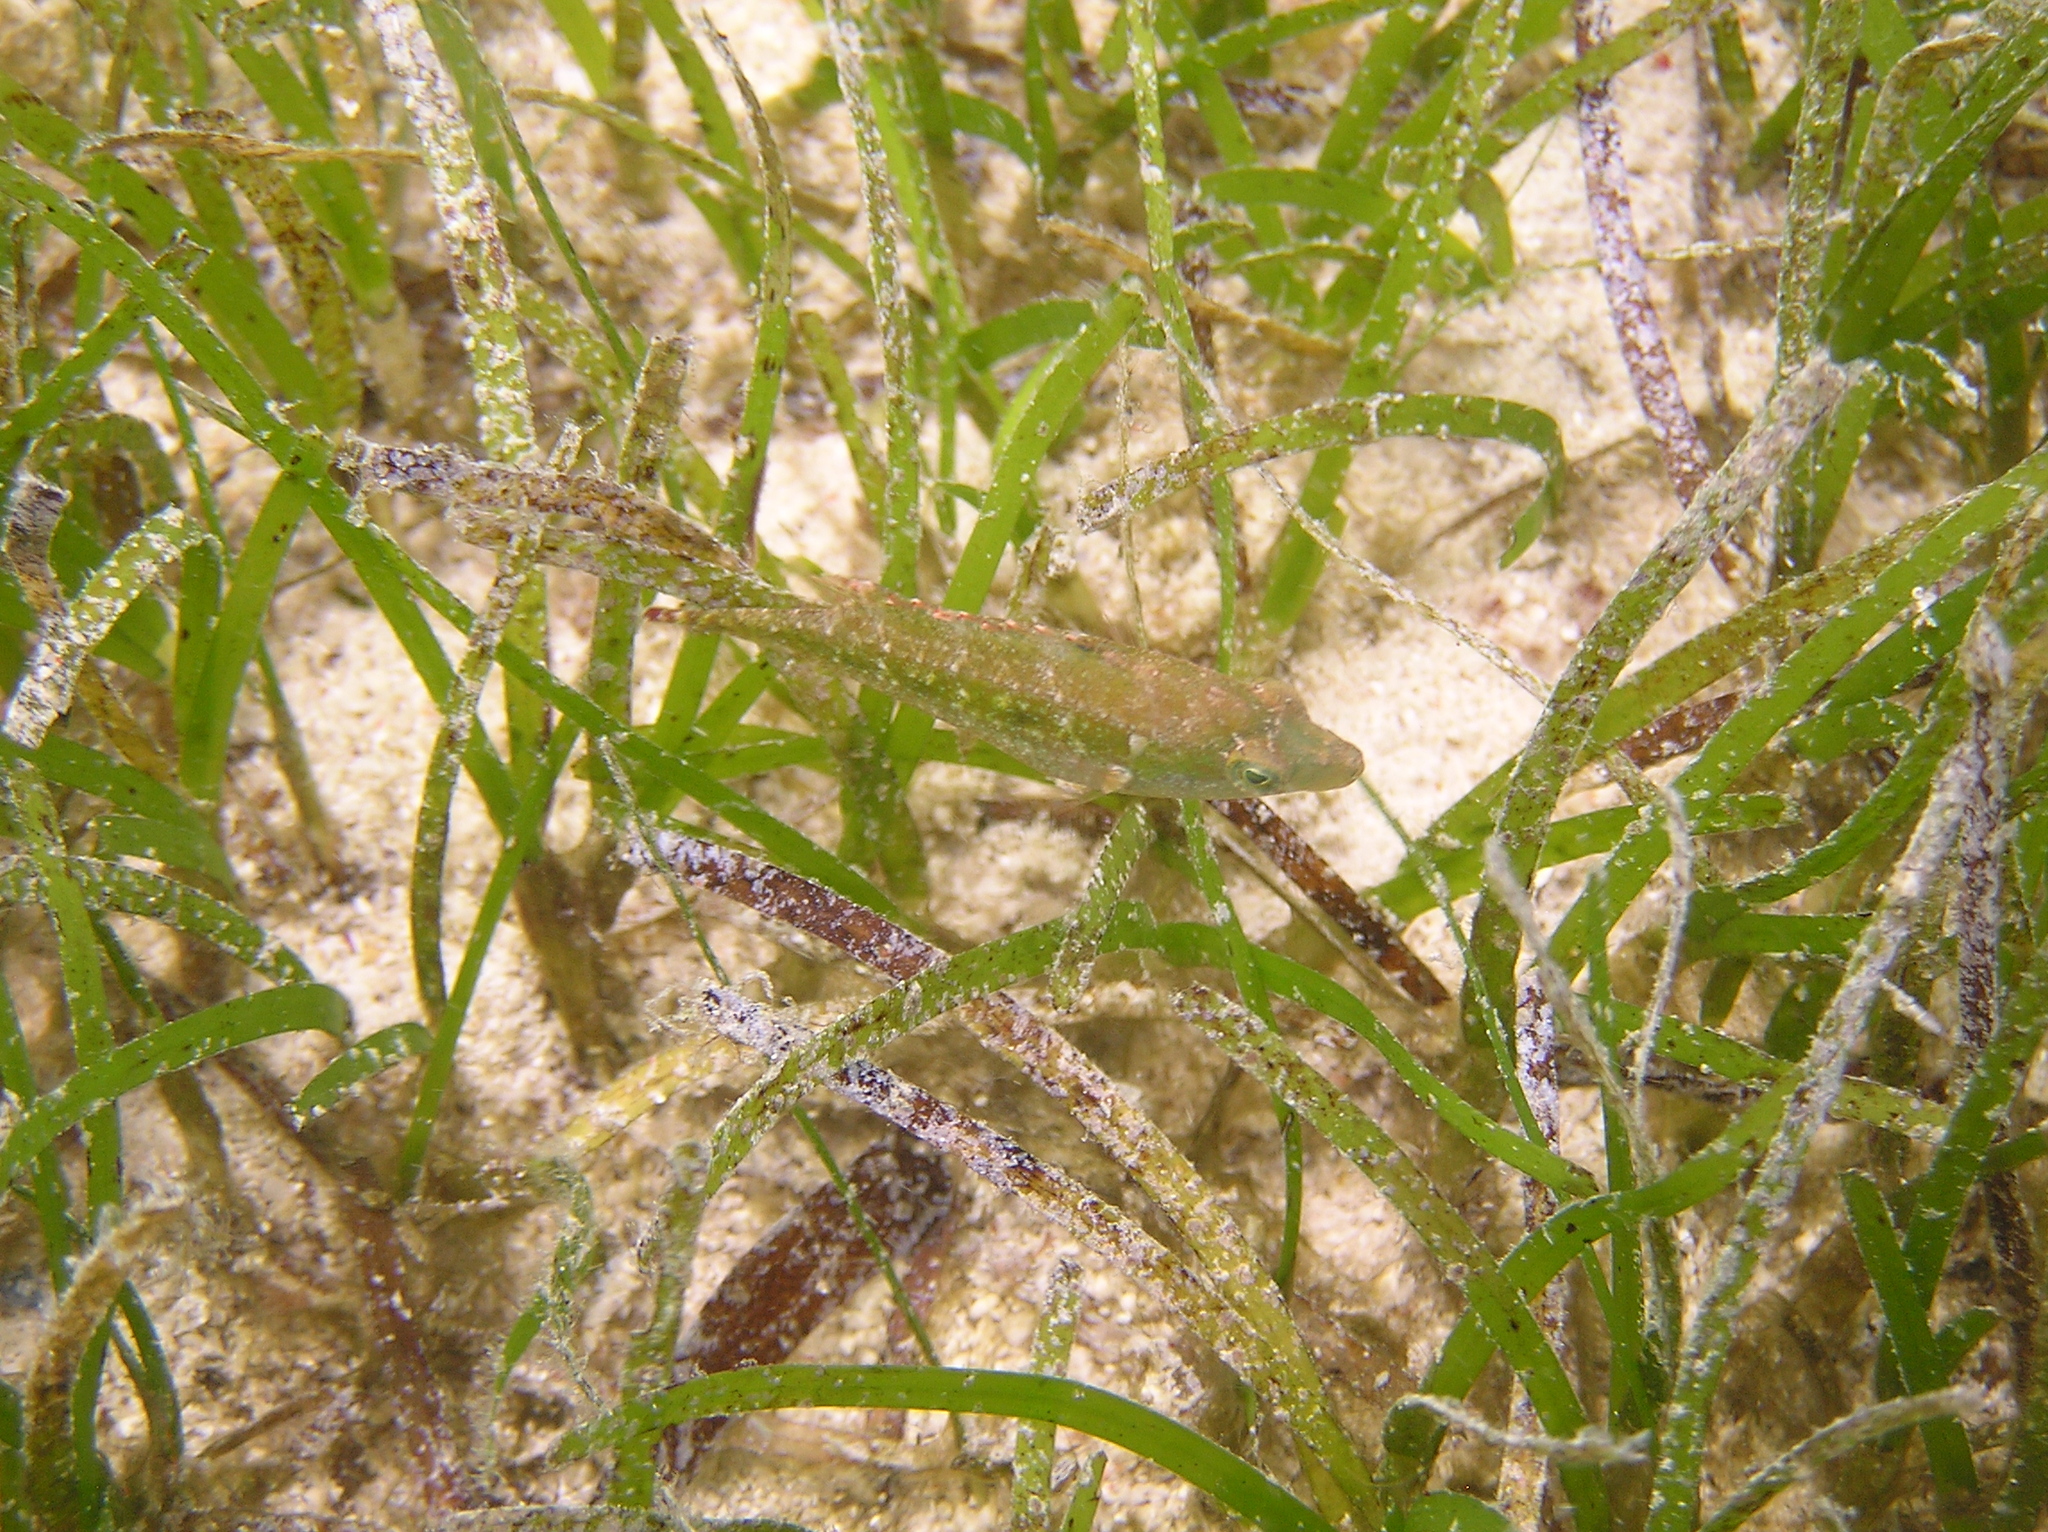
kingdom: Animalia
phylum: Chordata
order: Perciformes
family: Labridae
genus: Oxycheilinus
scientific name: Oxycheilinus bimaculatus
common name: Comettailed wrasse
